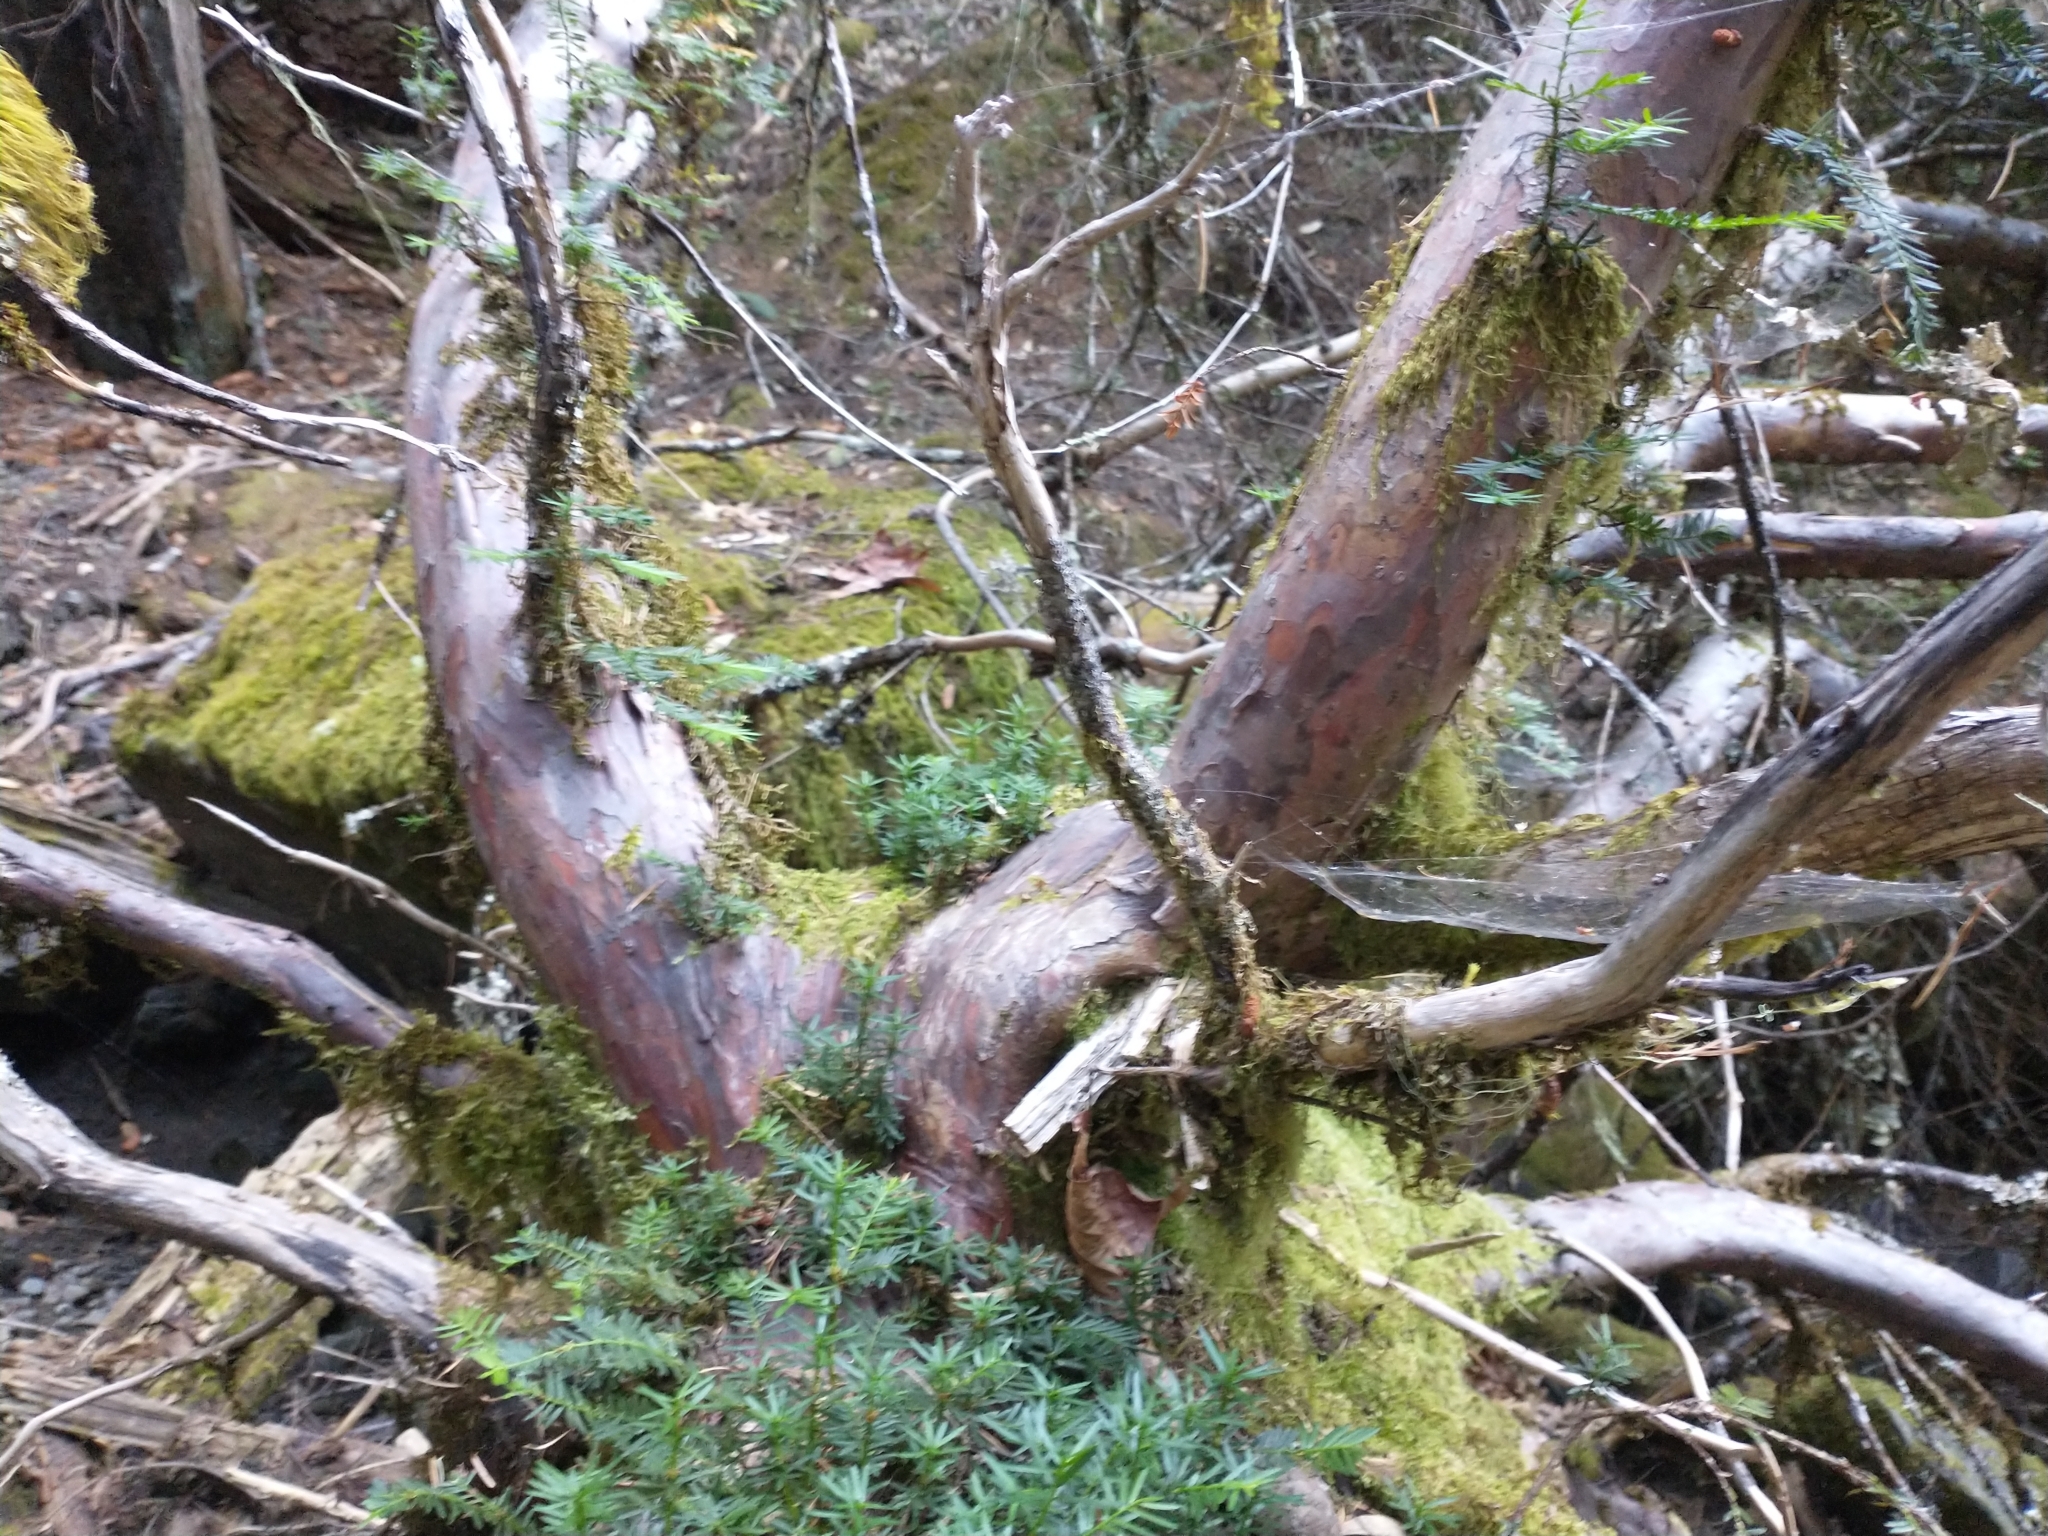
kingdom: Plantae
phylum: Tracheophyta
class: Pinopsida
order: Pinales
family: Taxaceae
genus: Taxus
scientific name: Taxus brevifolia
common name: Pacific yew
